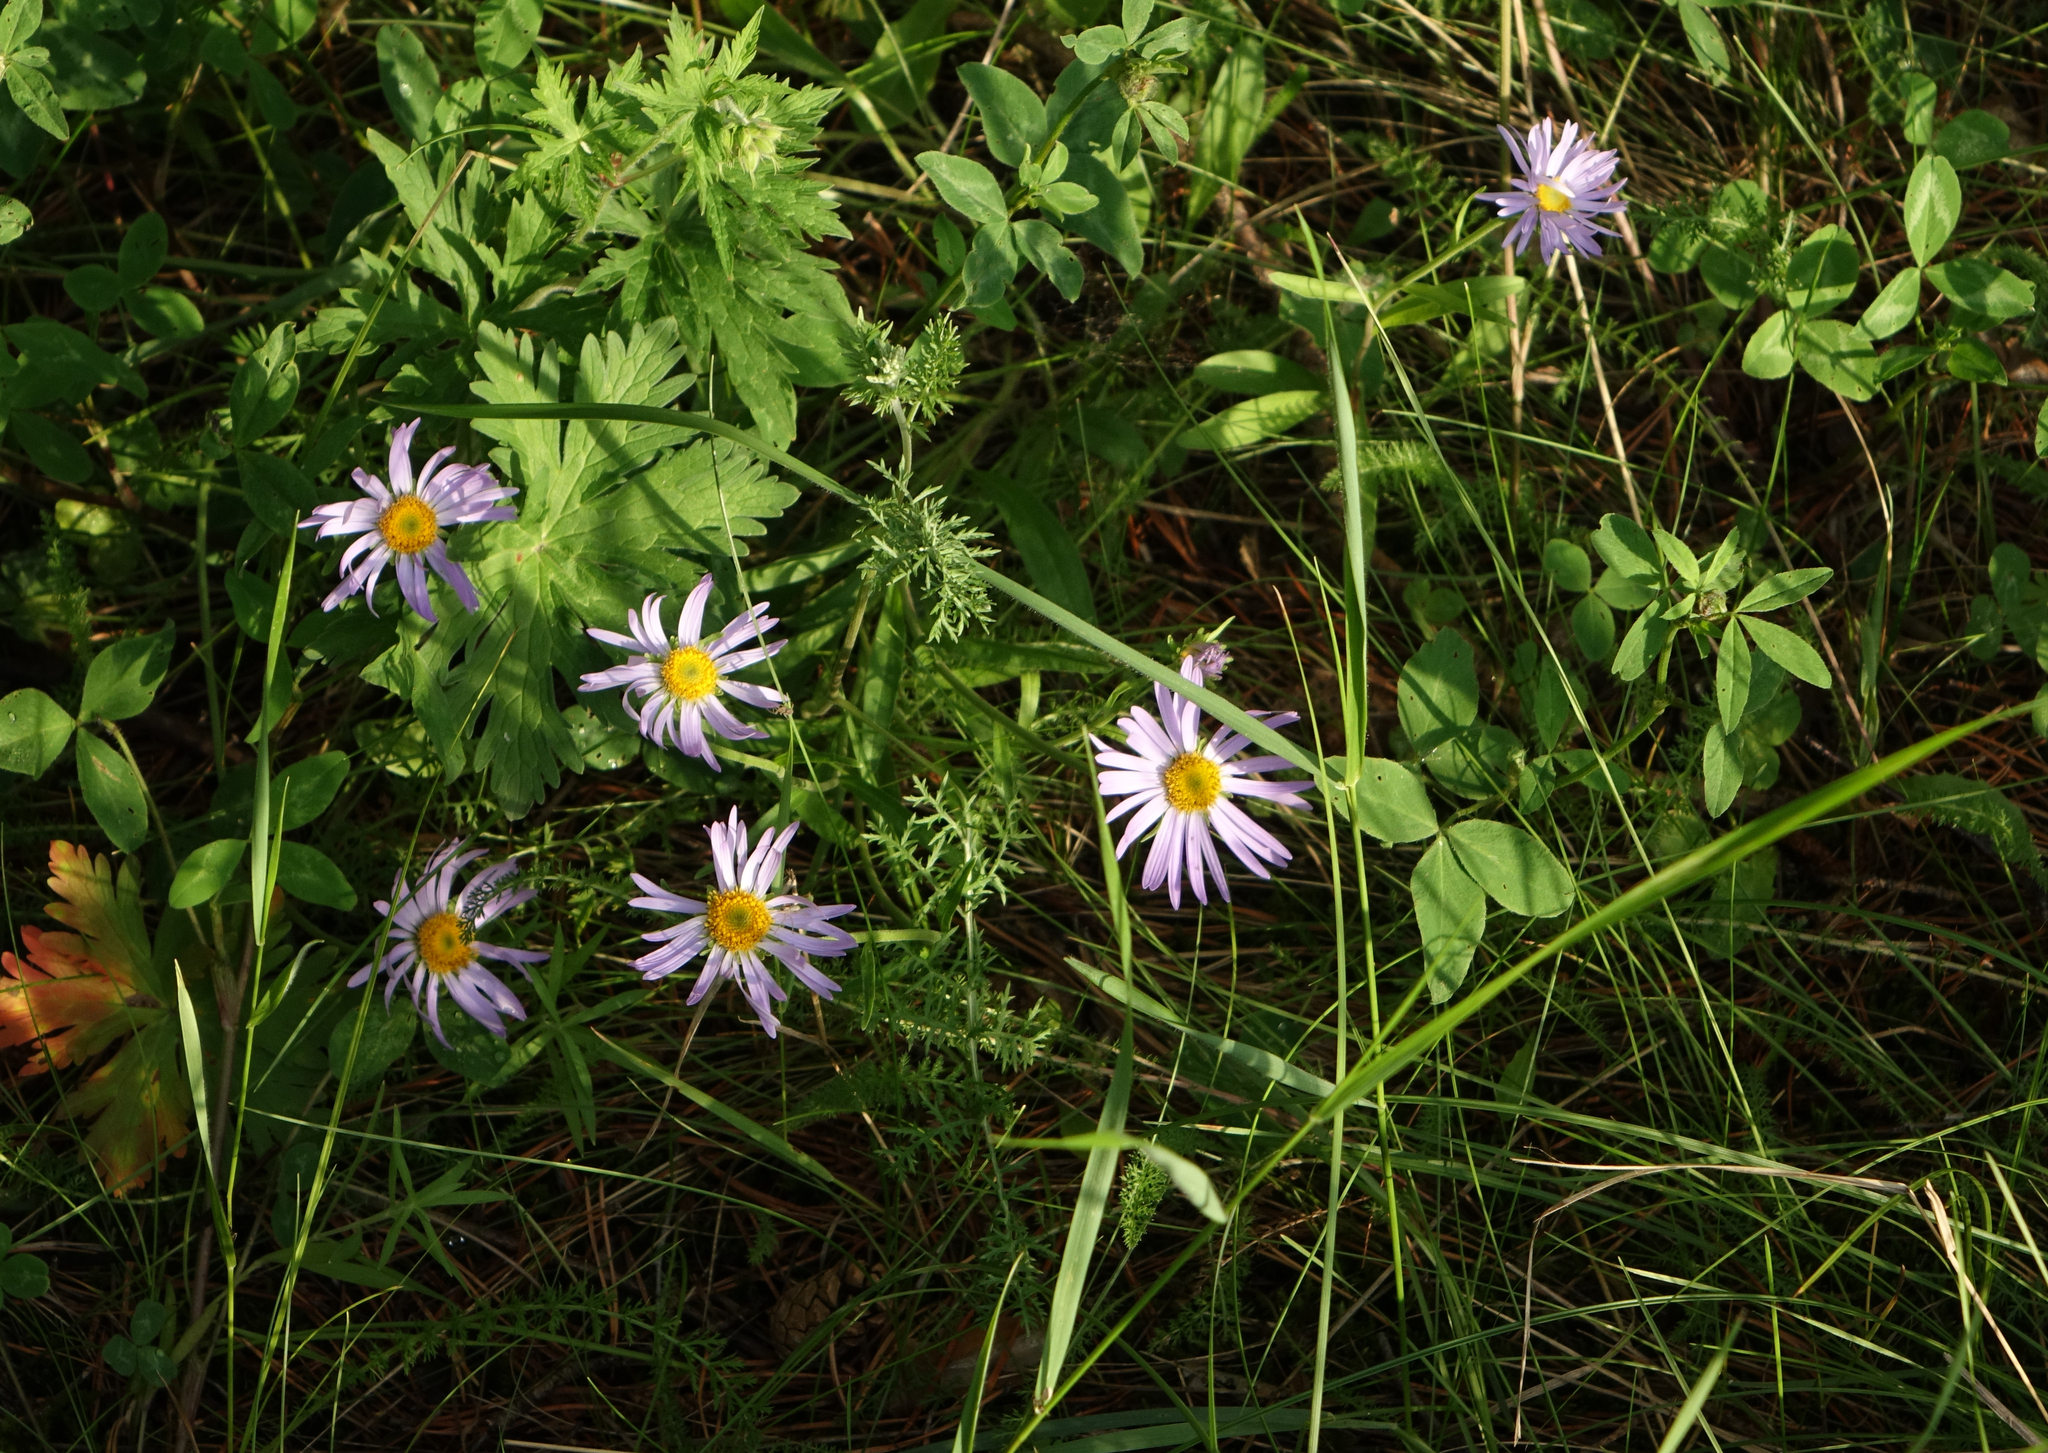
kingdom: Plantae
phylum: Tracheophyta
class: Magnoliopsida
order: Asterales
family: Asteraceae
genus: Aster
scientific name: Aster alpinus
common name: Alpine aster
